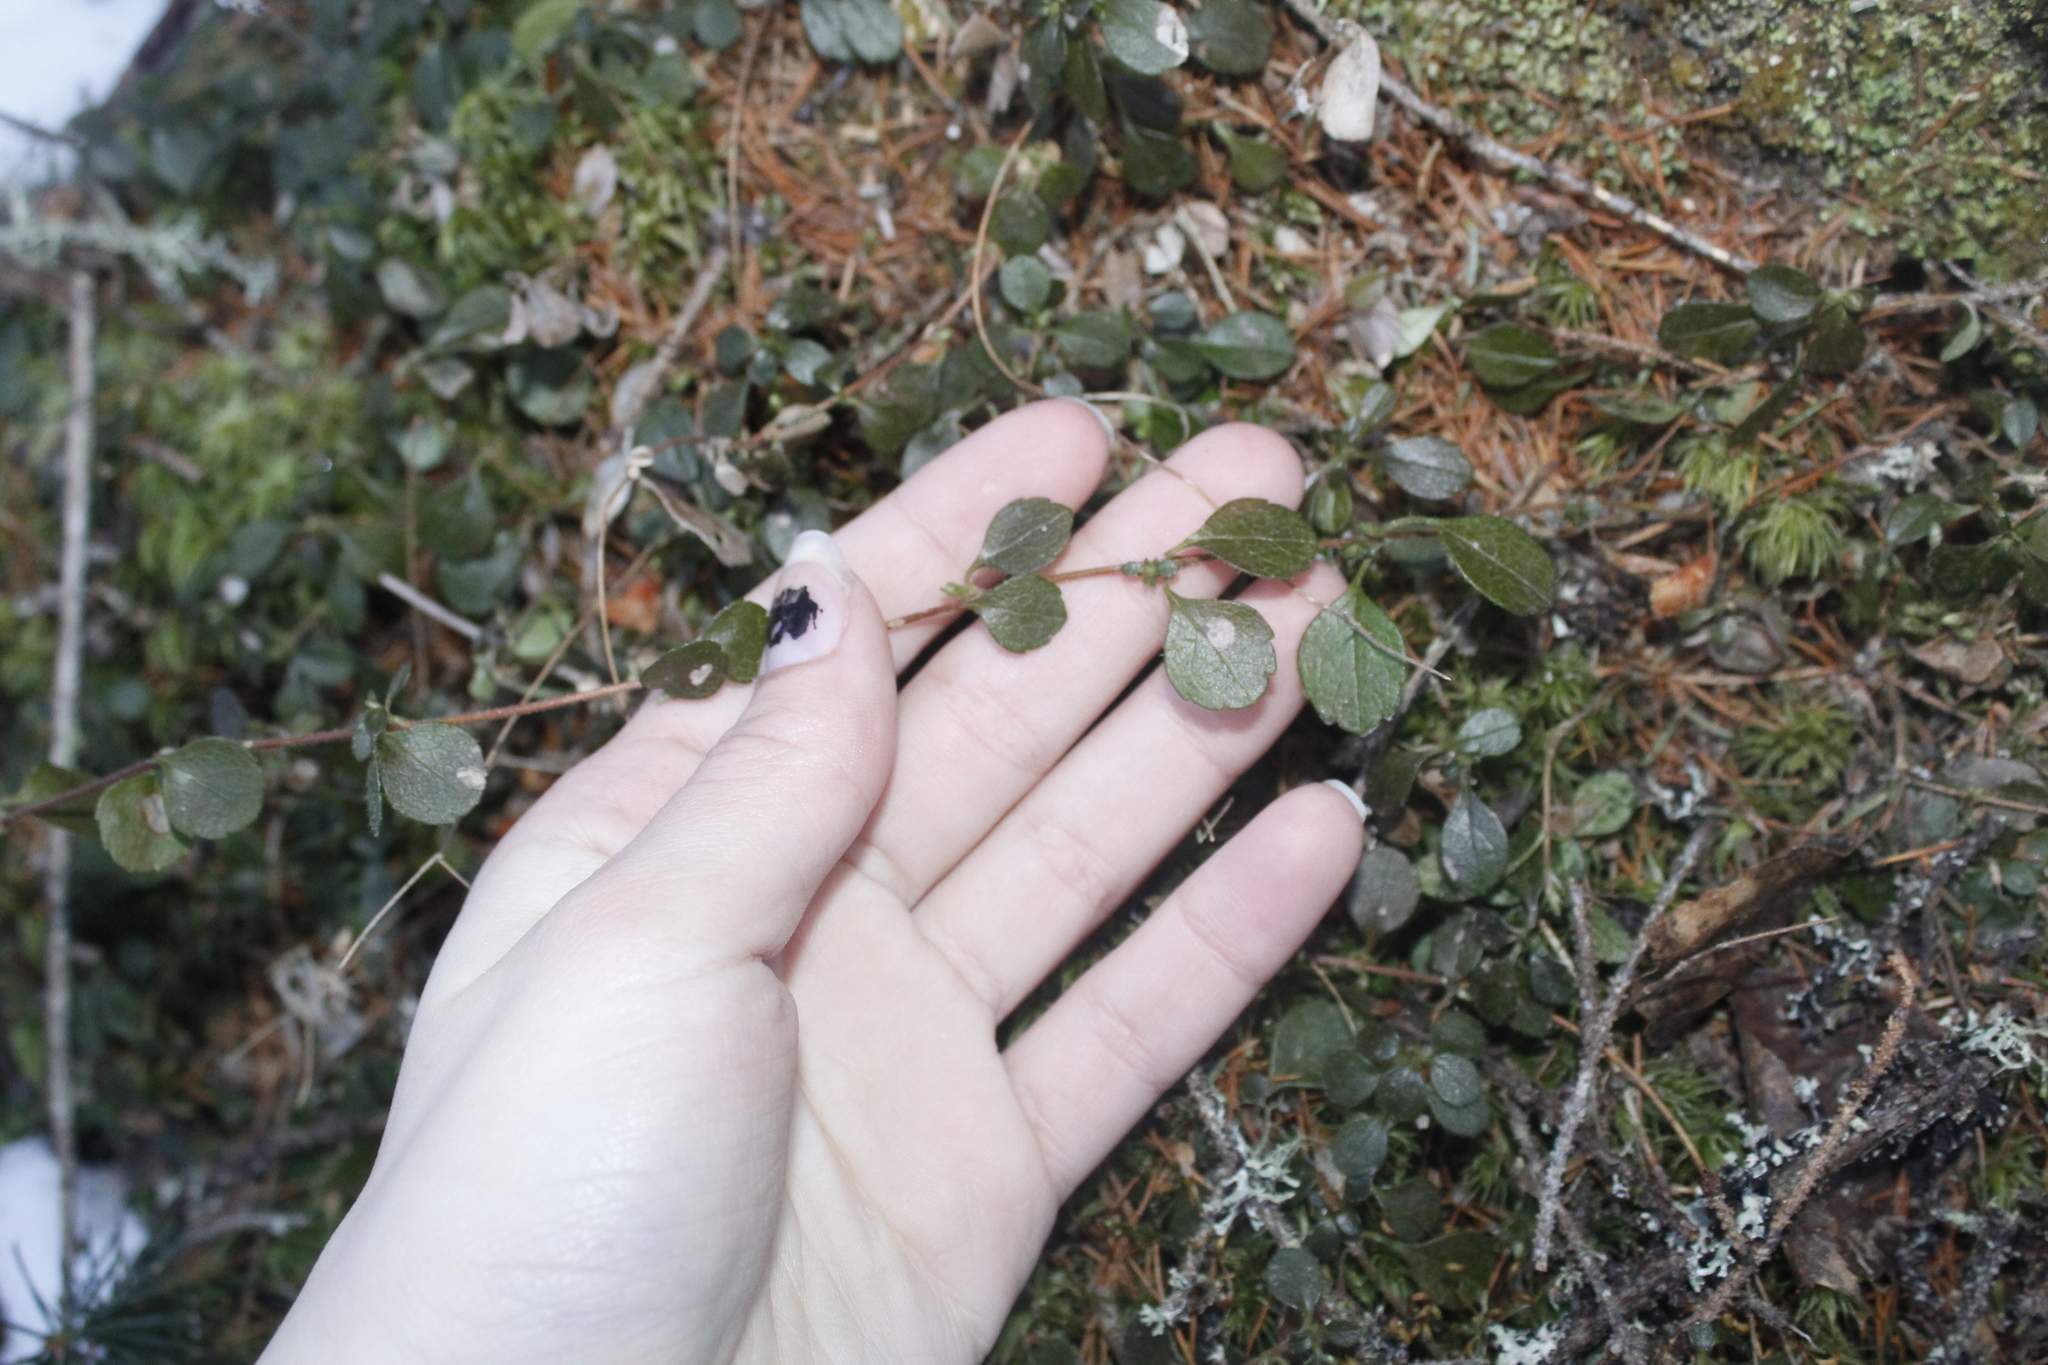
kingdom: Plantae
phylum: Tracheophyta
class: Magnoliopsida
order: Dipsacales
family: Caprifoliaceae
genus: Linnaea
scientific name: Linnaea borealis
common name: Twinflower
